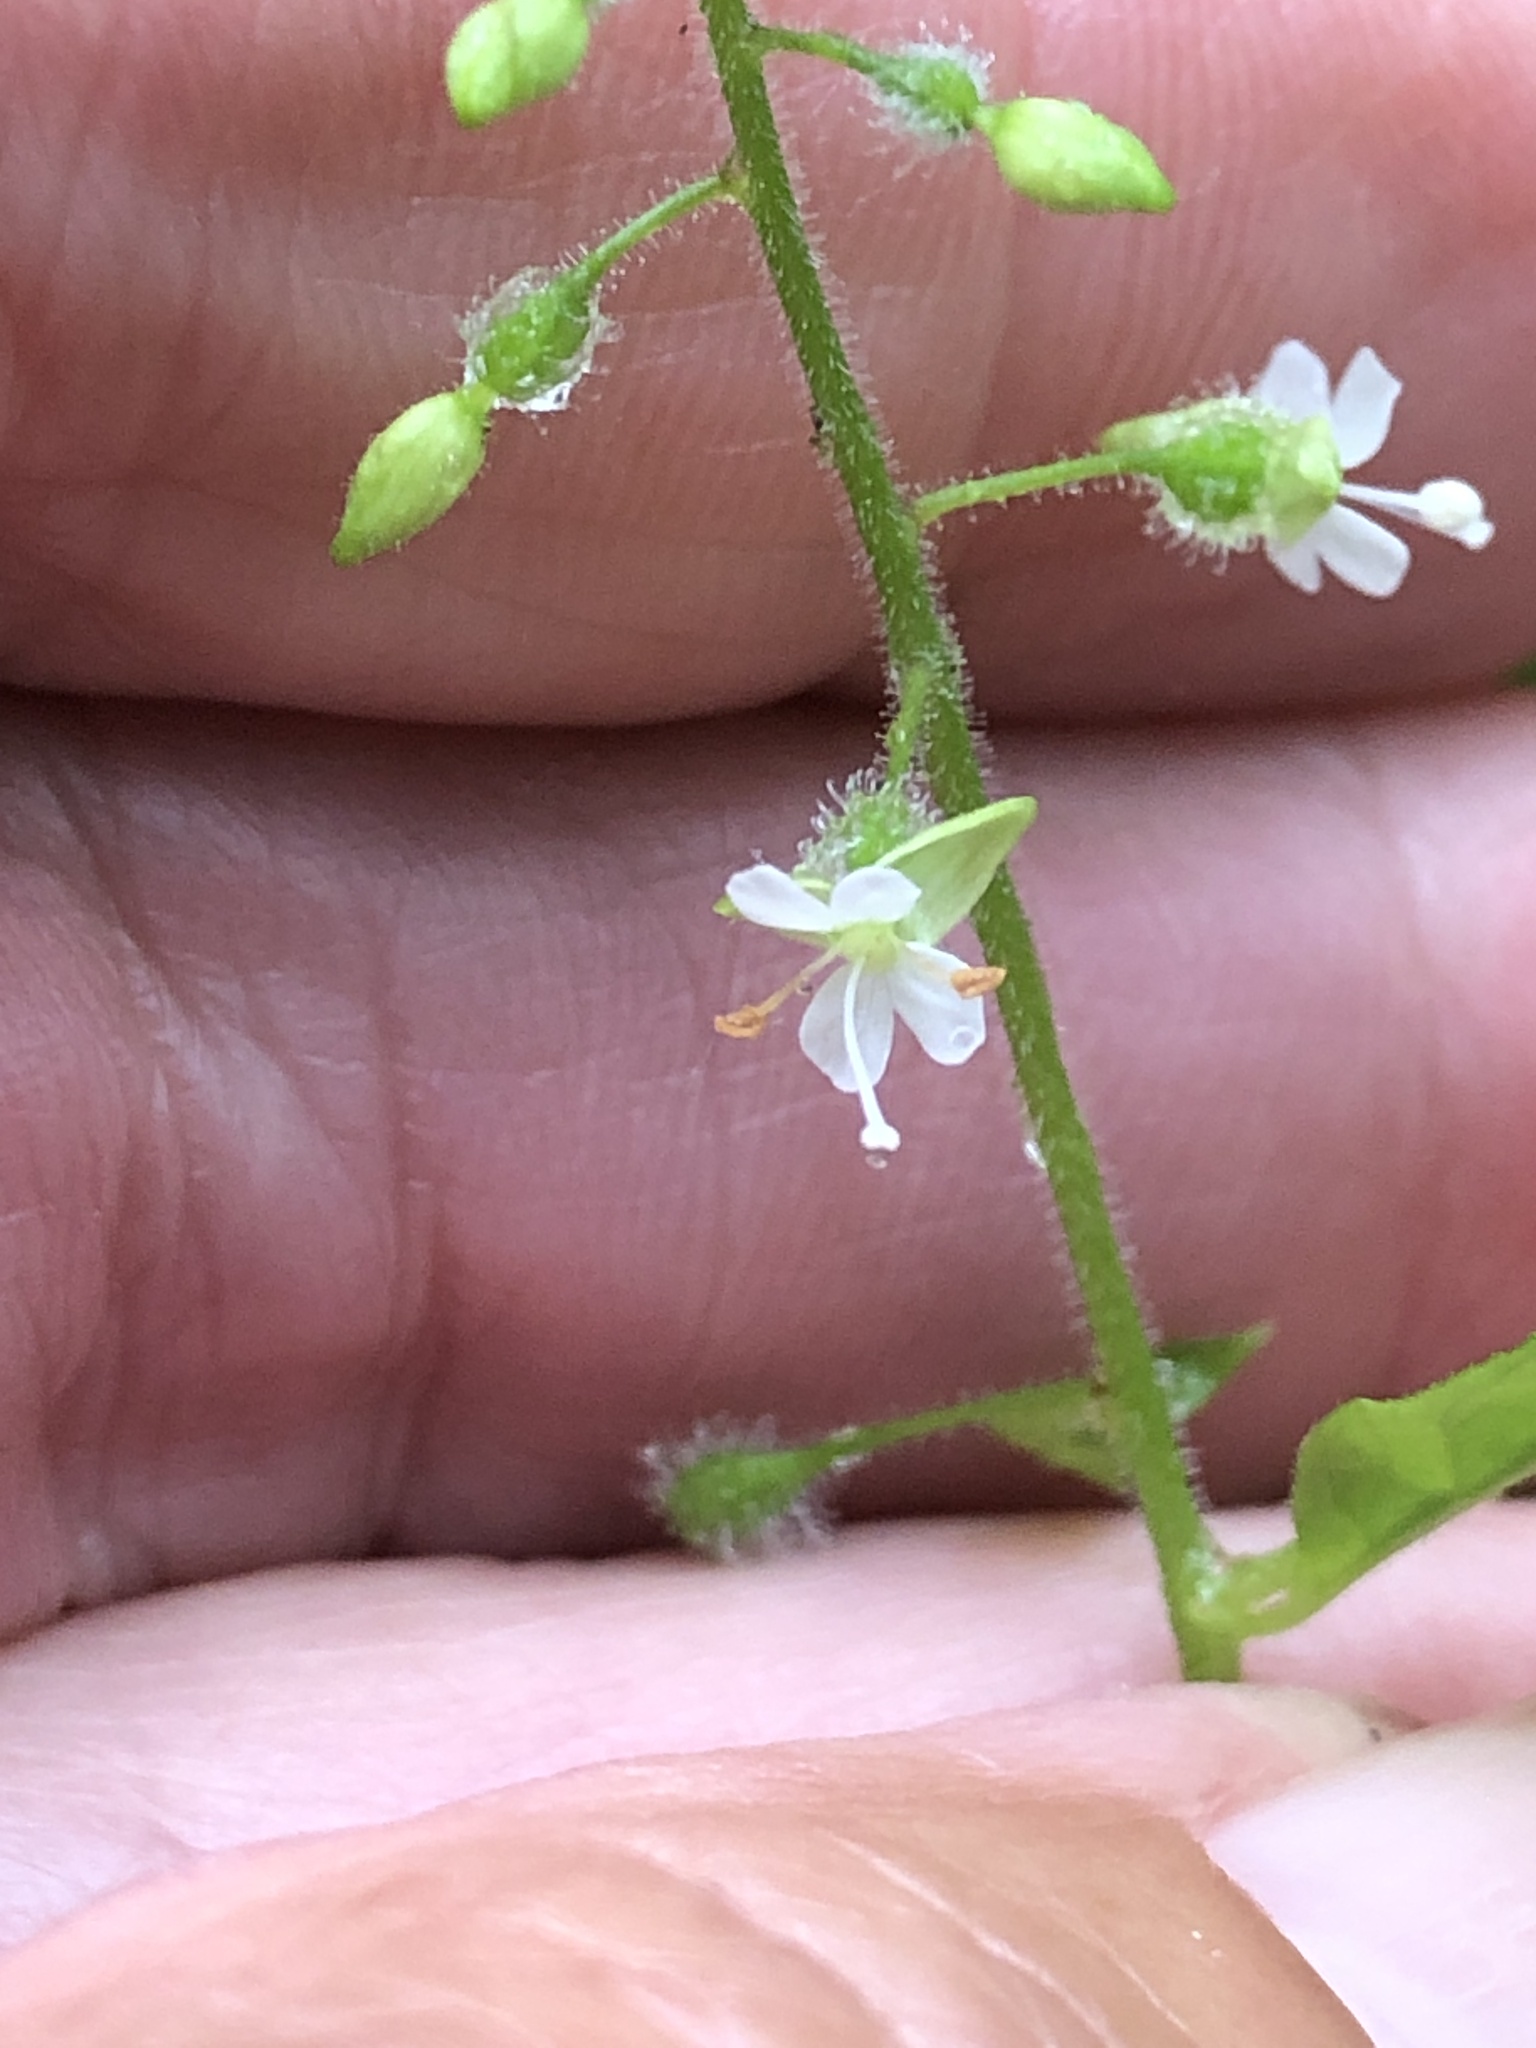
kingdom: Plantae
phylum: Tracheophyta
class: Magnoliopsida
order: Myrtales
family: Onagraceae
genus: Circaea
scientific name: Circaea canadensis
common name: Broad-leaved enchanter's nightshade
